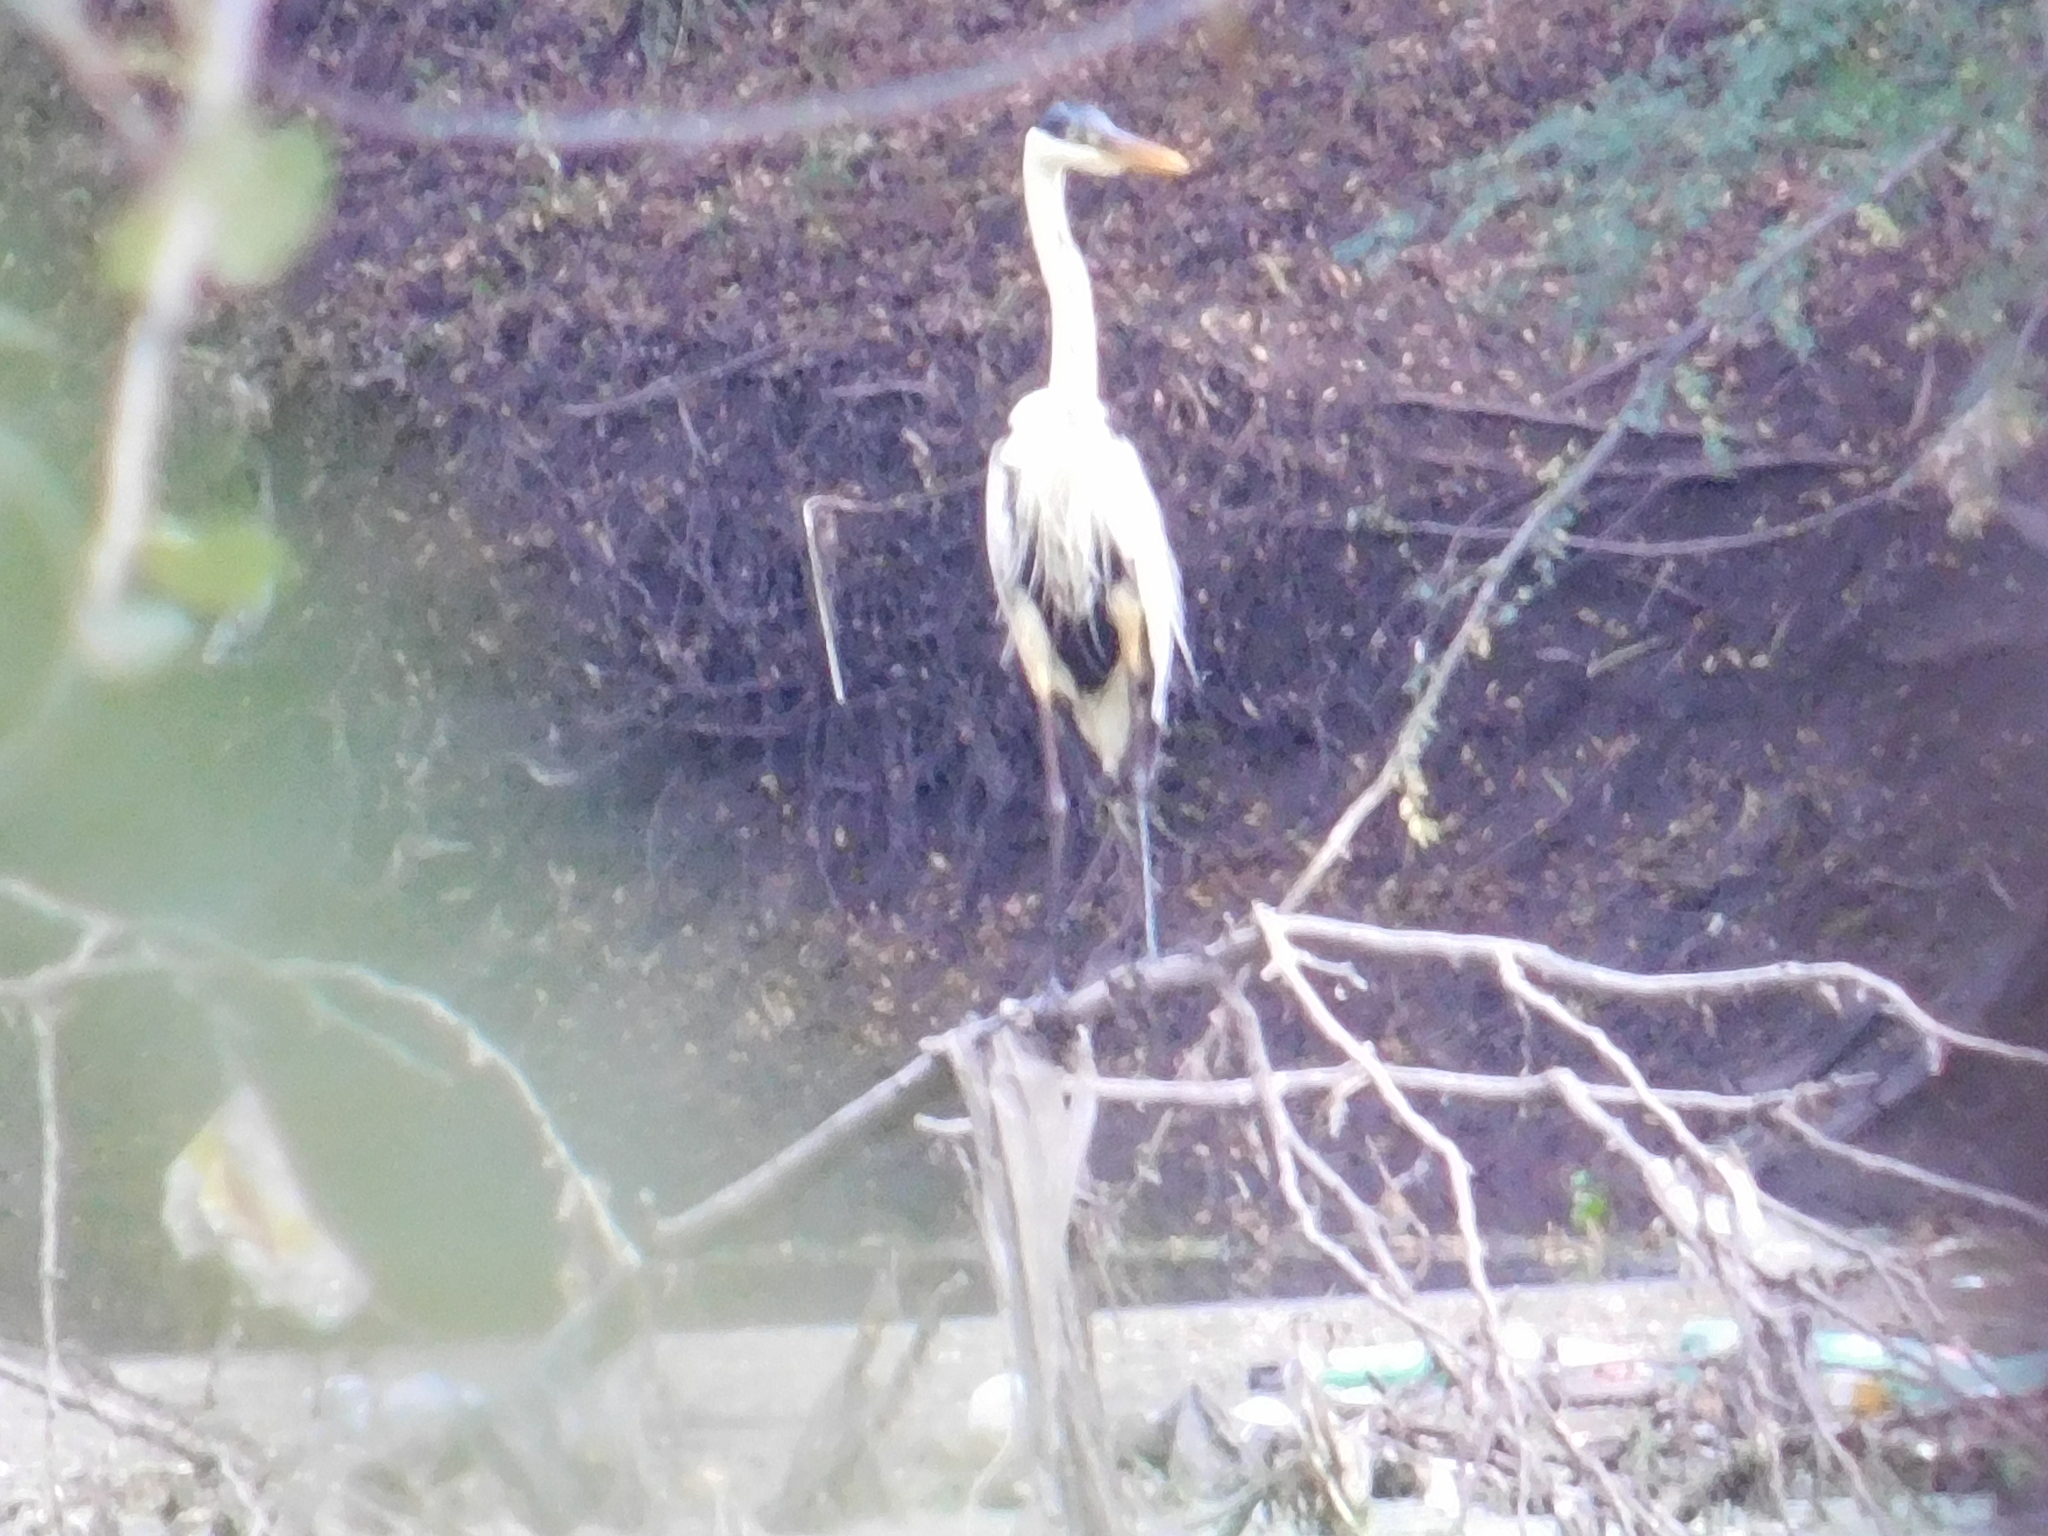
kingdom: Animalia
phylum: Chordata
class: Aves
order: Pelecaniformes
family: Ardeidae
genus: Ardea
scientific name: Ardea cocoi
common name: Cocoi heron
